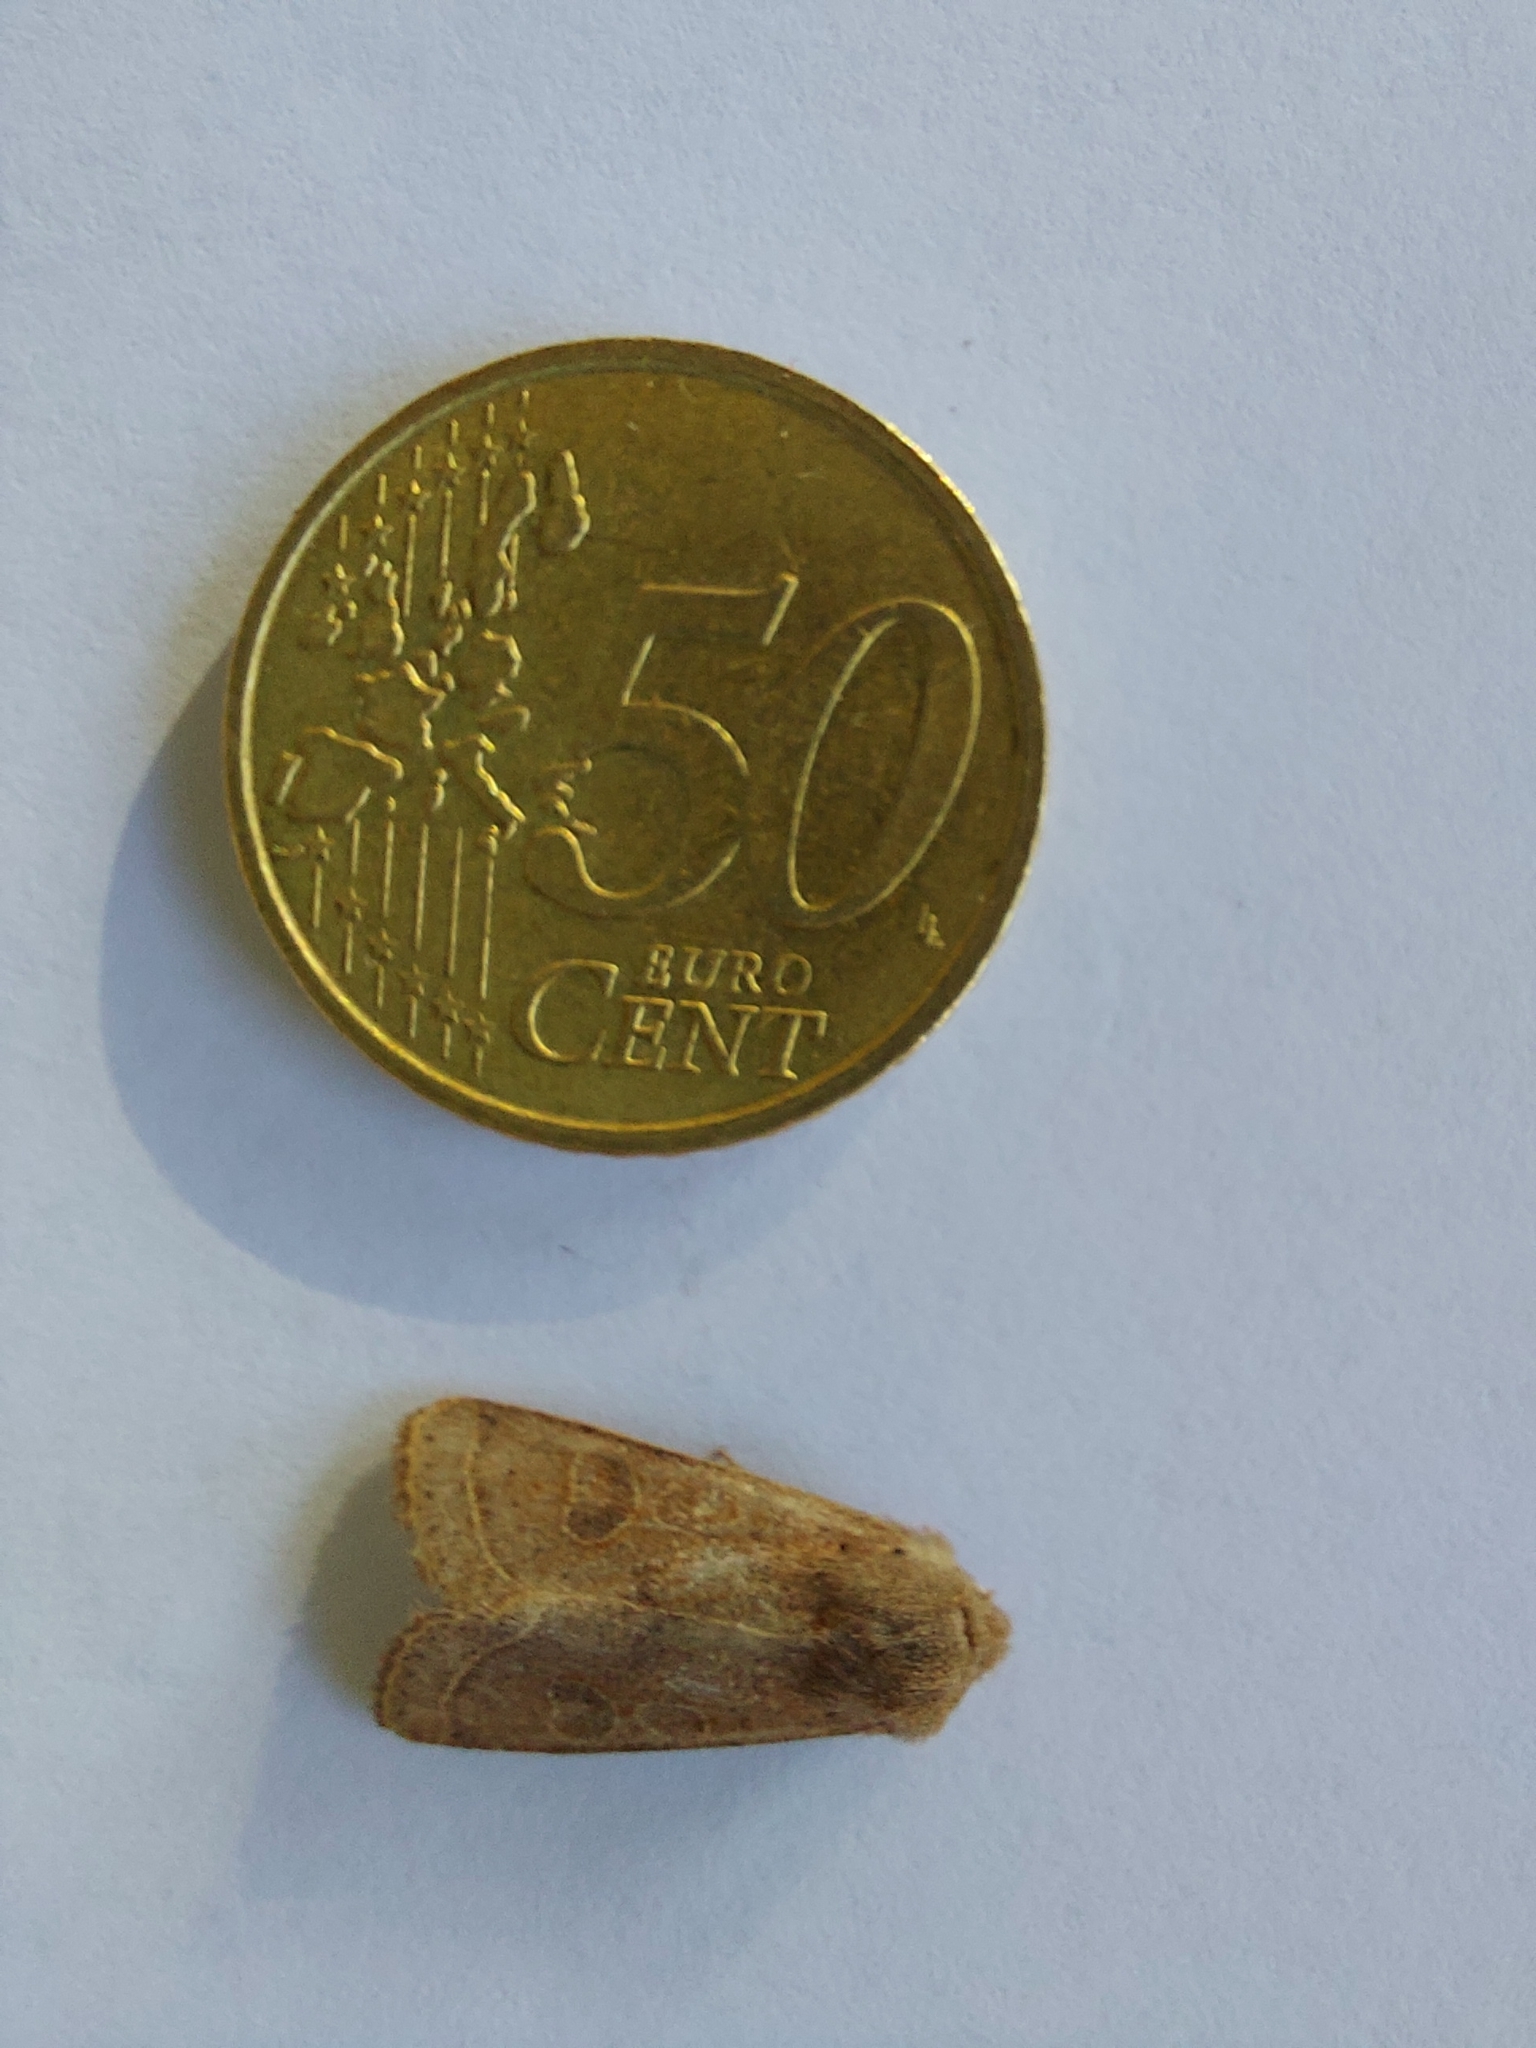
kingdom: Animalia
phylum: Arthropoda
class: Insecta
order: Lepidoptera
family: Noctuidae
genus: Orthosia
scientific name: Orthosia cerasi
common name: Common quaker
